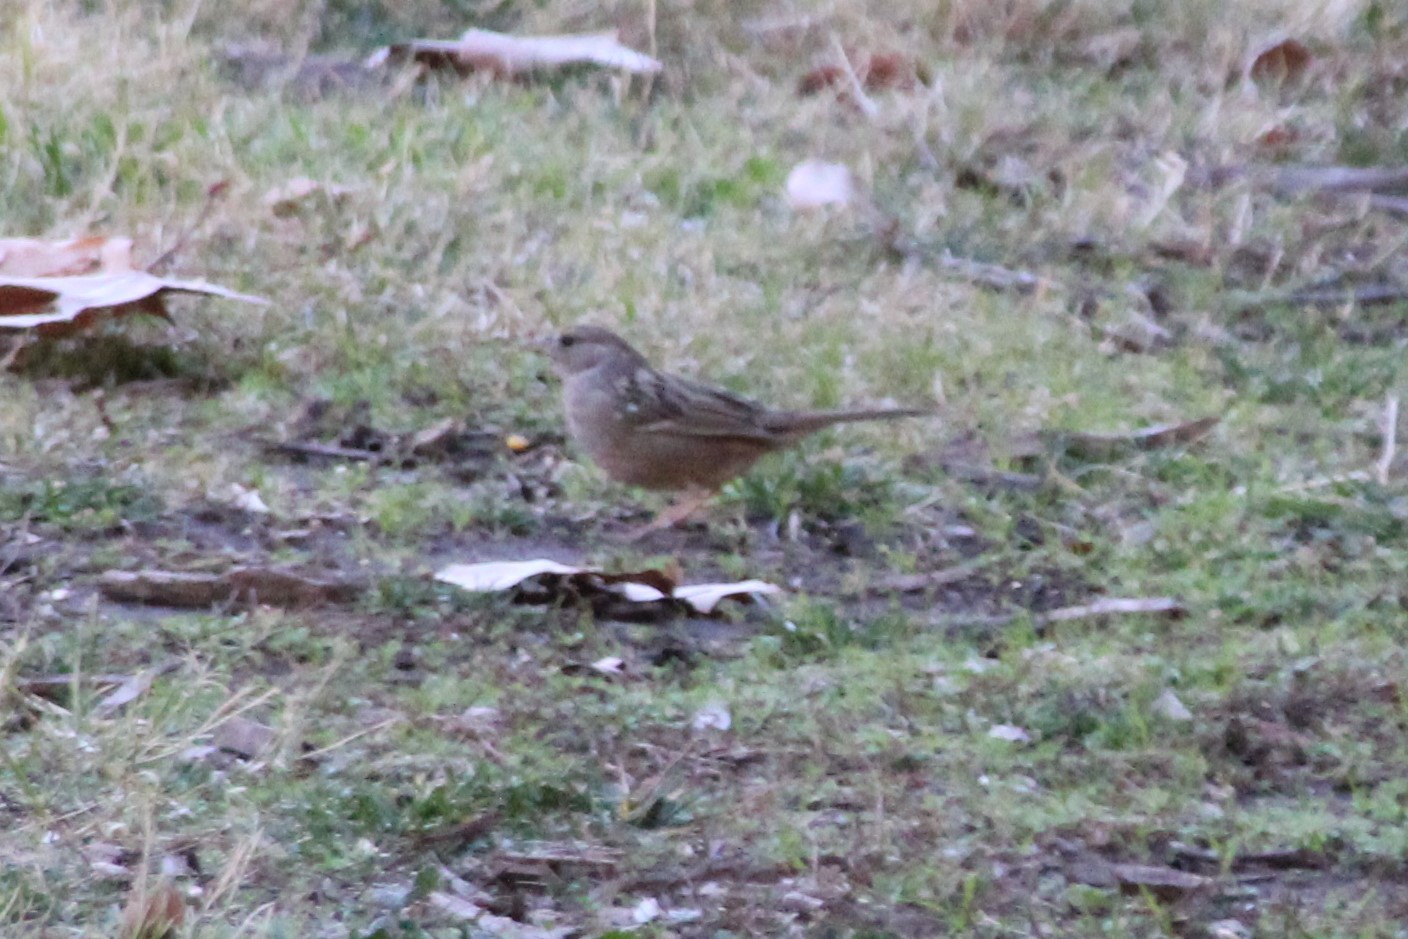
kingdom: Animalia
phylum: Chordata
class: Aves
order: Passeriformes
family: Passerellidae
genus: Zonotrichia
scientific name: Zonotrichia atricapilla
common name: Golden-crowned sparrow
